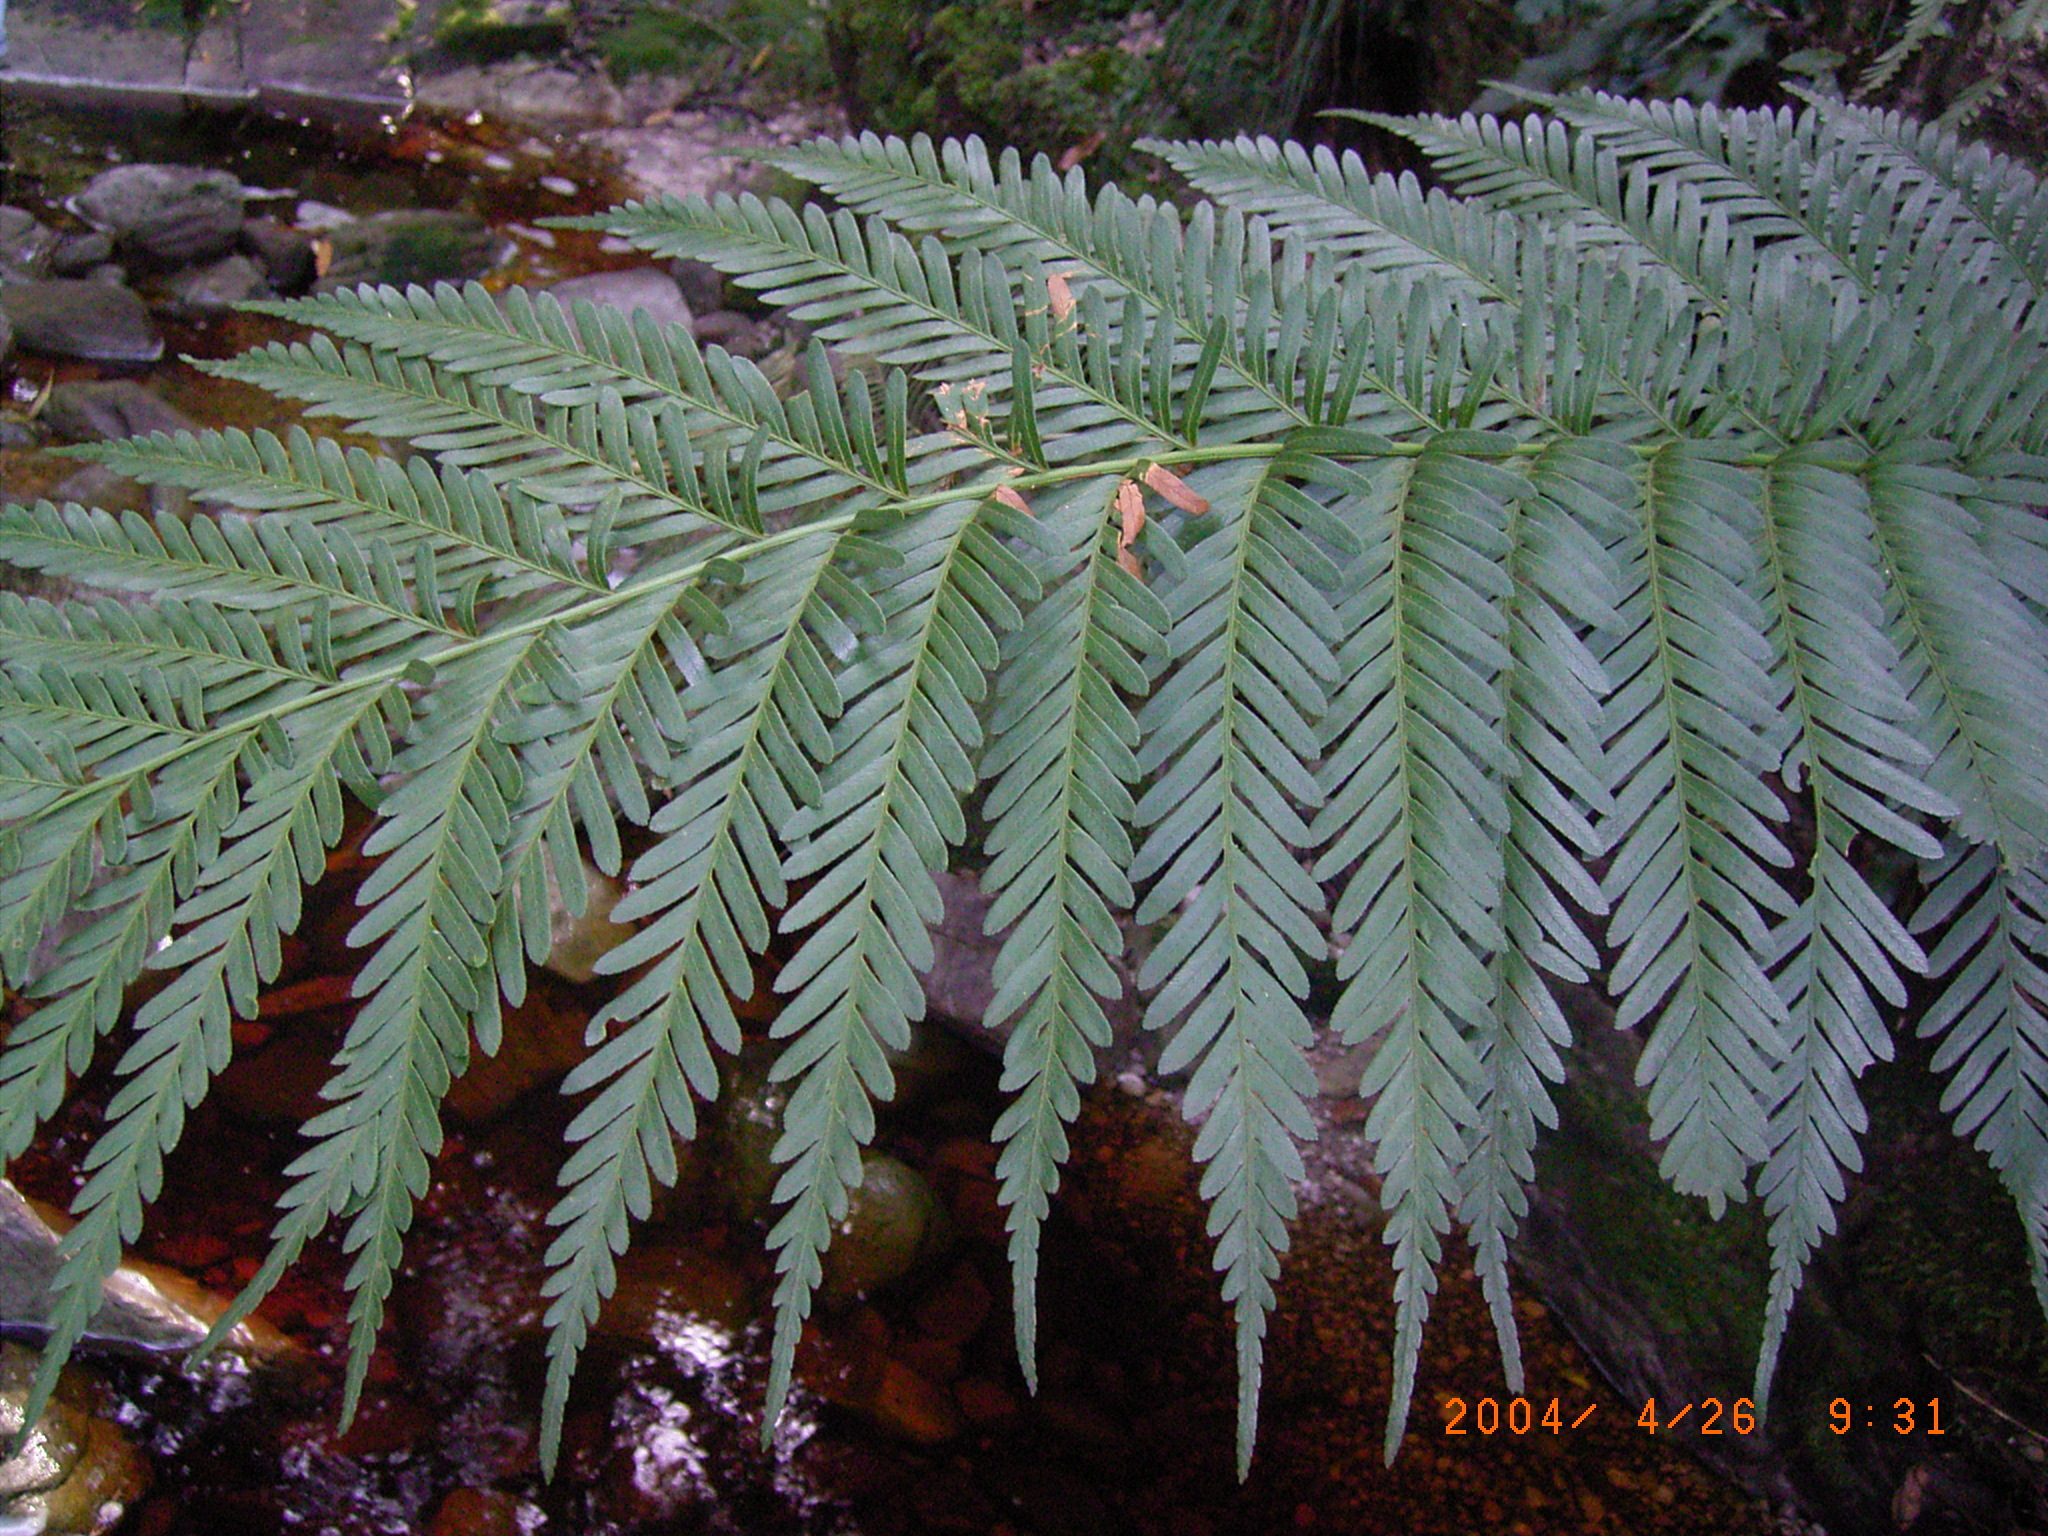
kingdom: Plantae
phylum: Tracheophyta
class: Polypodiopsida
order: Osmundales
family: Osmundaceae
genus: Todea
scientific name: Todea barbara
